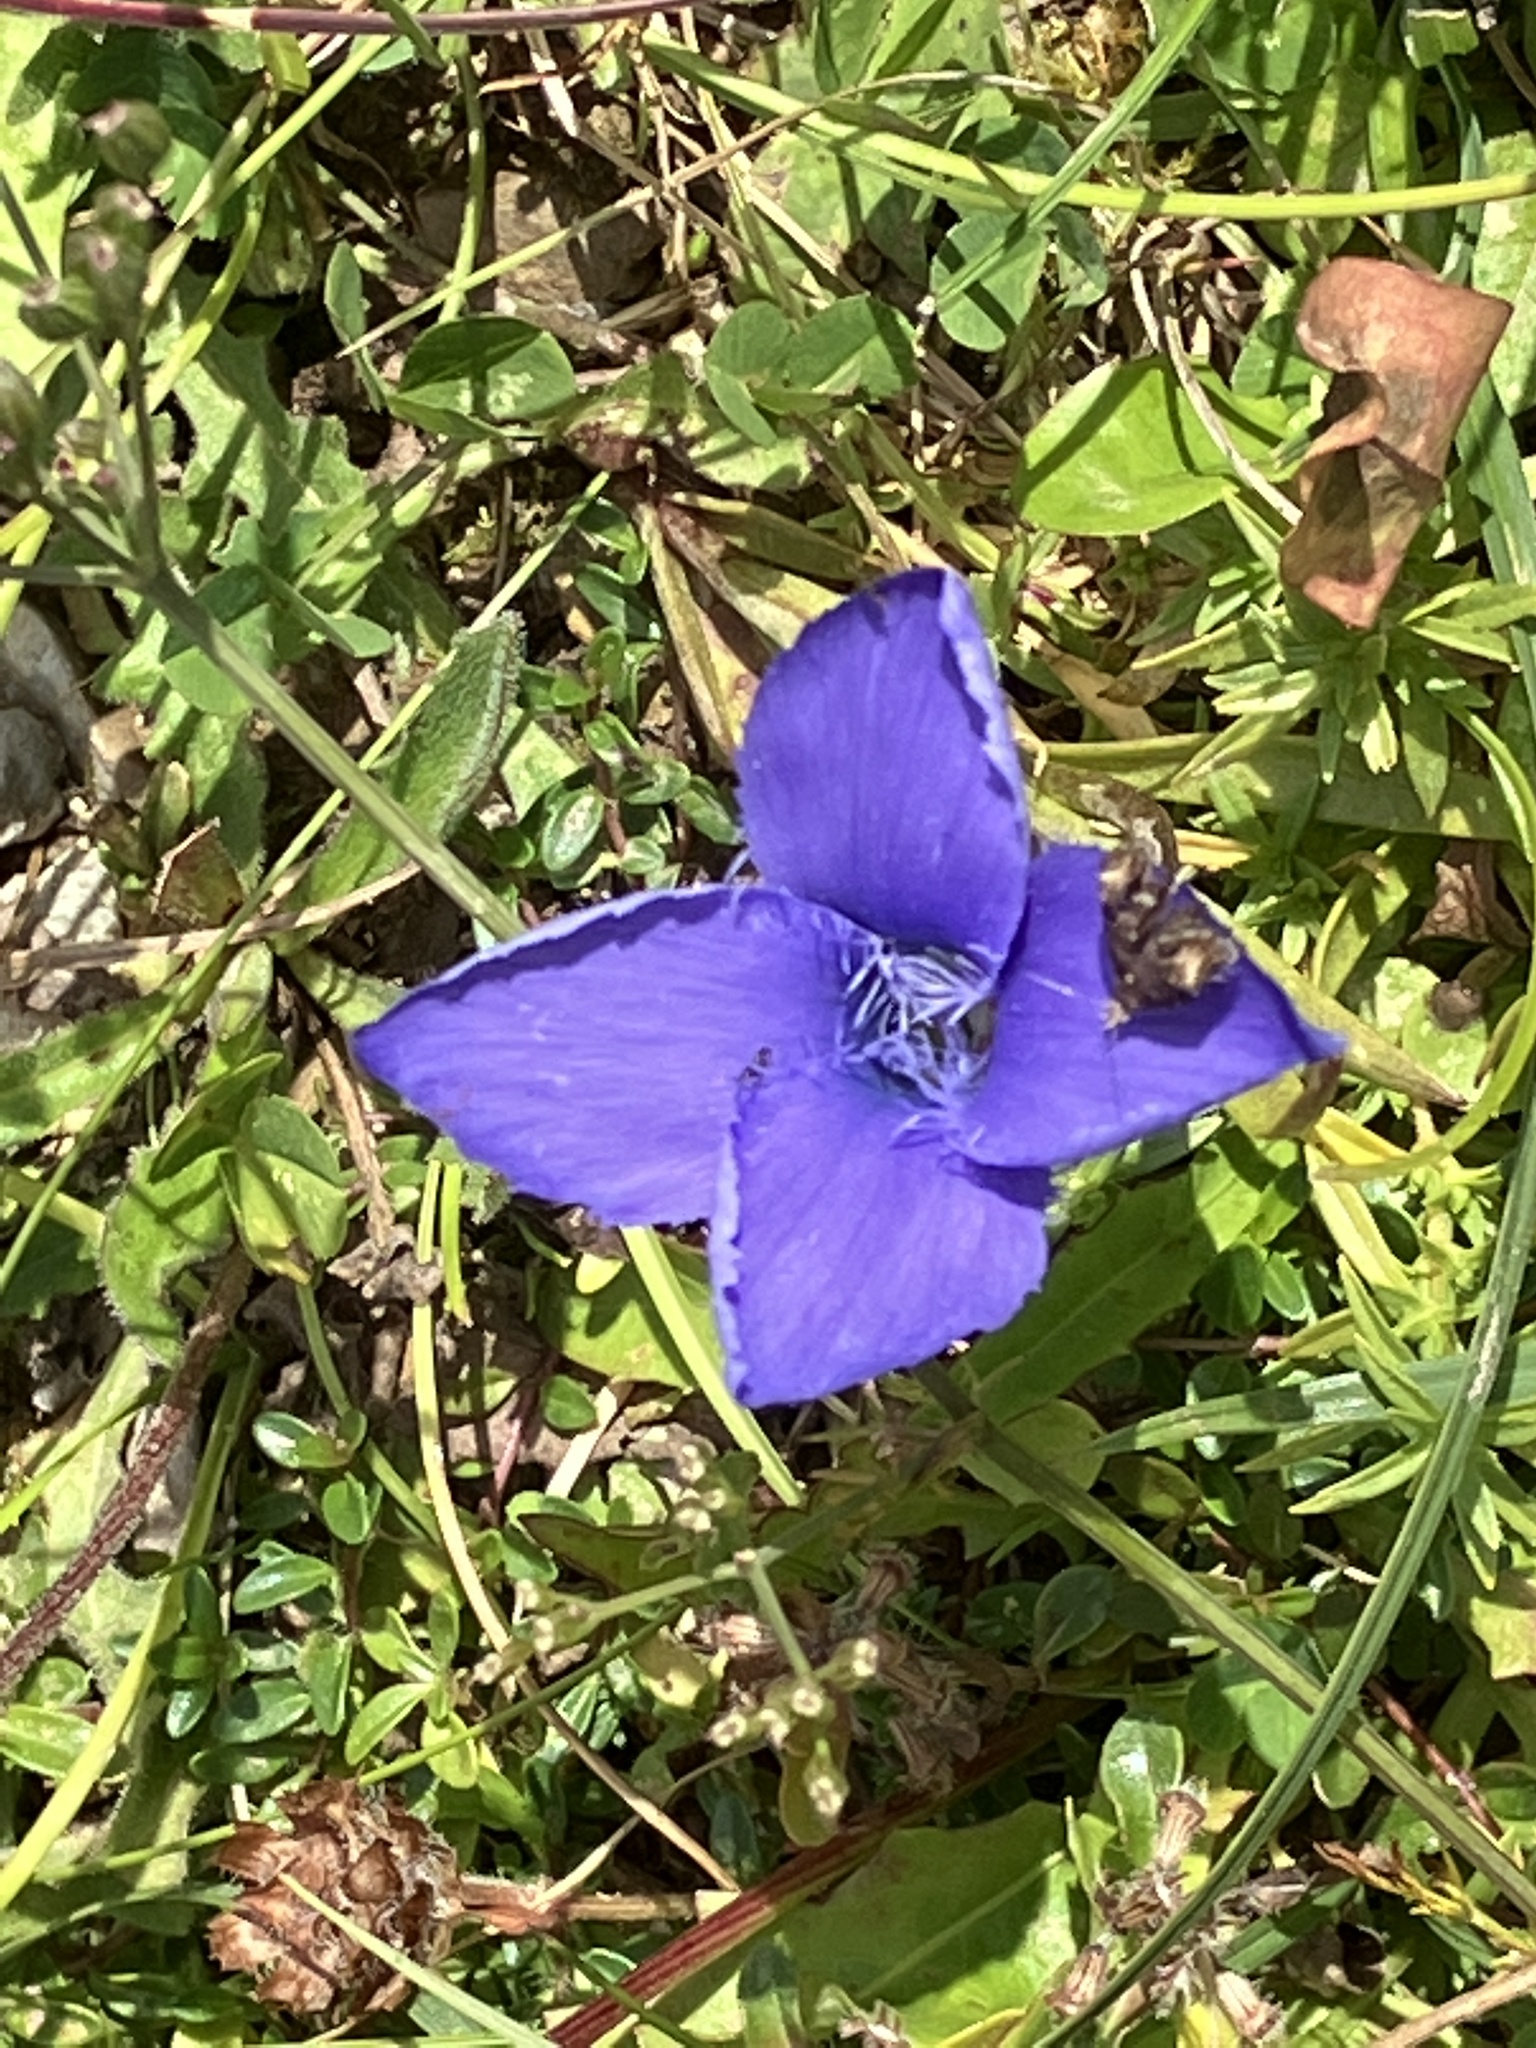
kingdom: Plantae
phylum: Tracheophyta
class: Magnoliopsida
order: Gentianales
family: Gentianaceae
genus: Gentianopsis
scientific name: Gentianopsis ciliata
